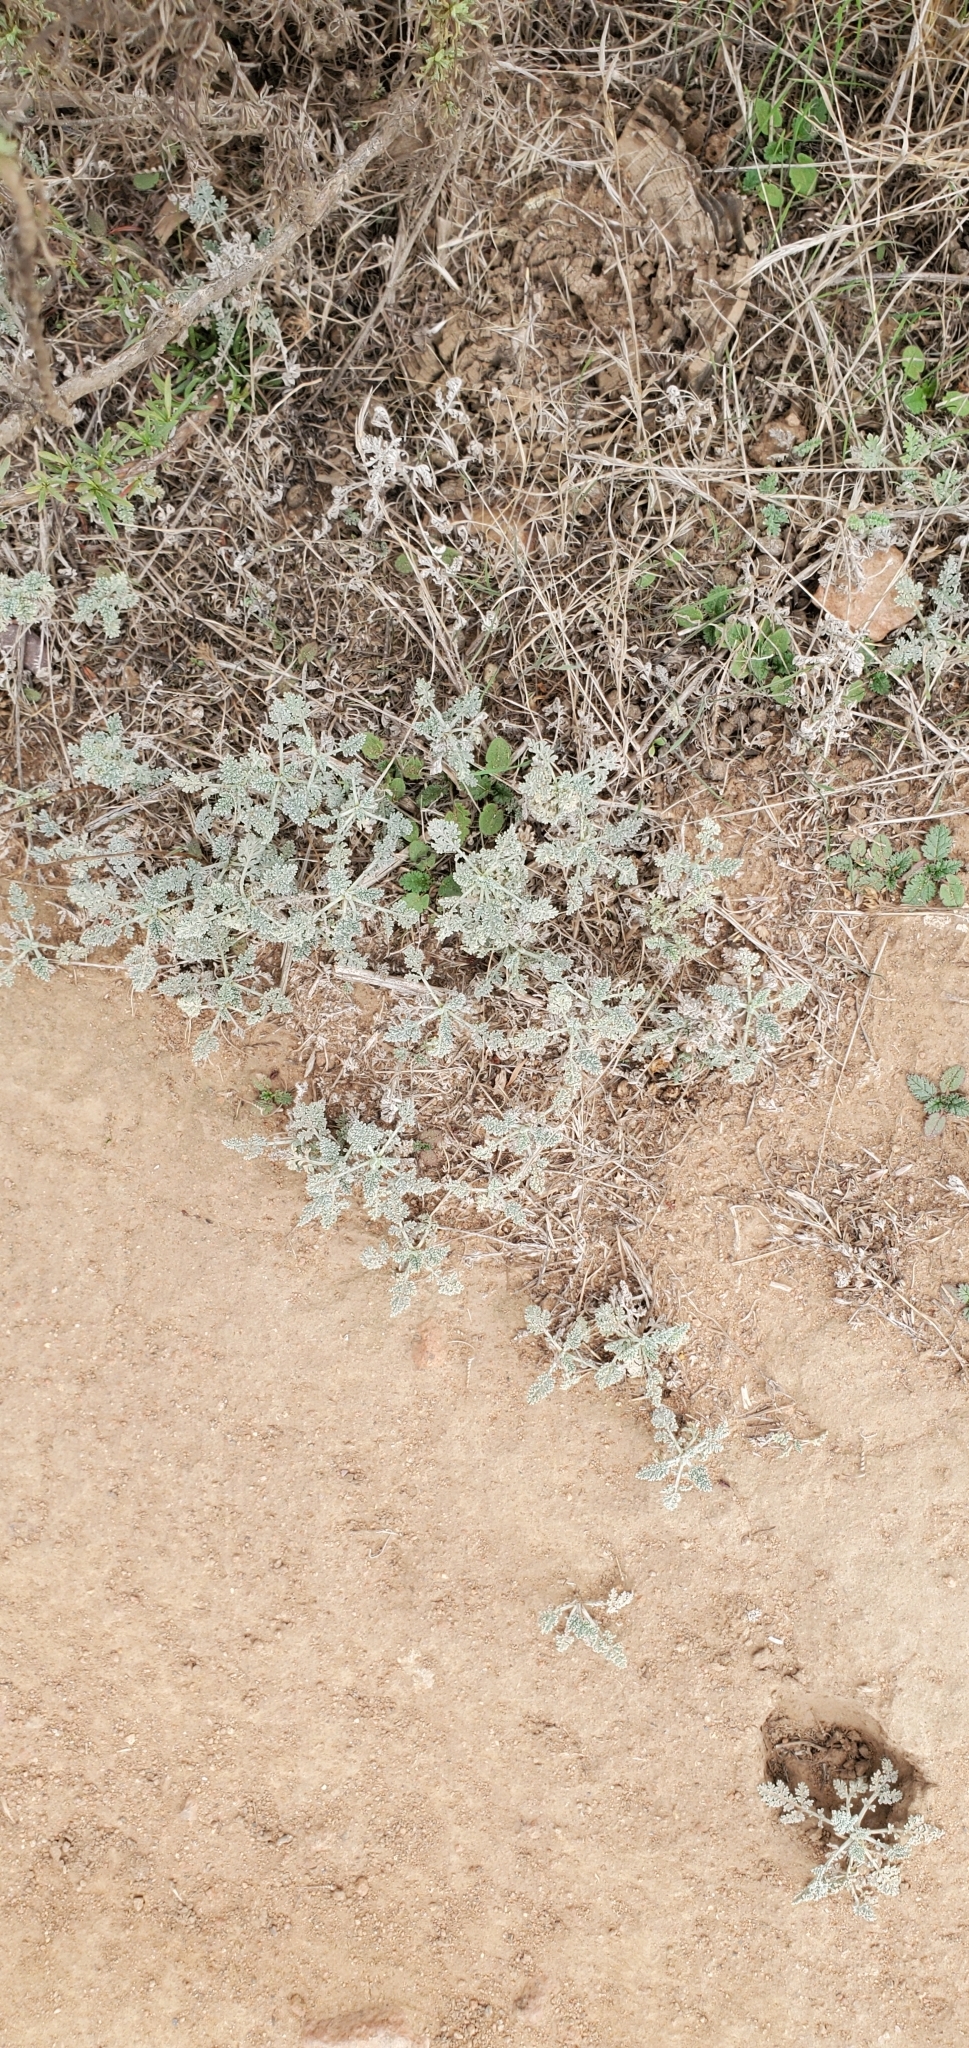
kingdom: Plantae
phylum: Tracheophyta
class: Magnoliopsida
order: Asterales
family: Asteraceae
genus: Ambrosia
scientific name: Ambrosia pumila
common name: San diego ambrosia
